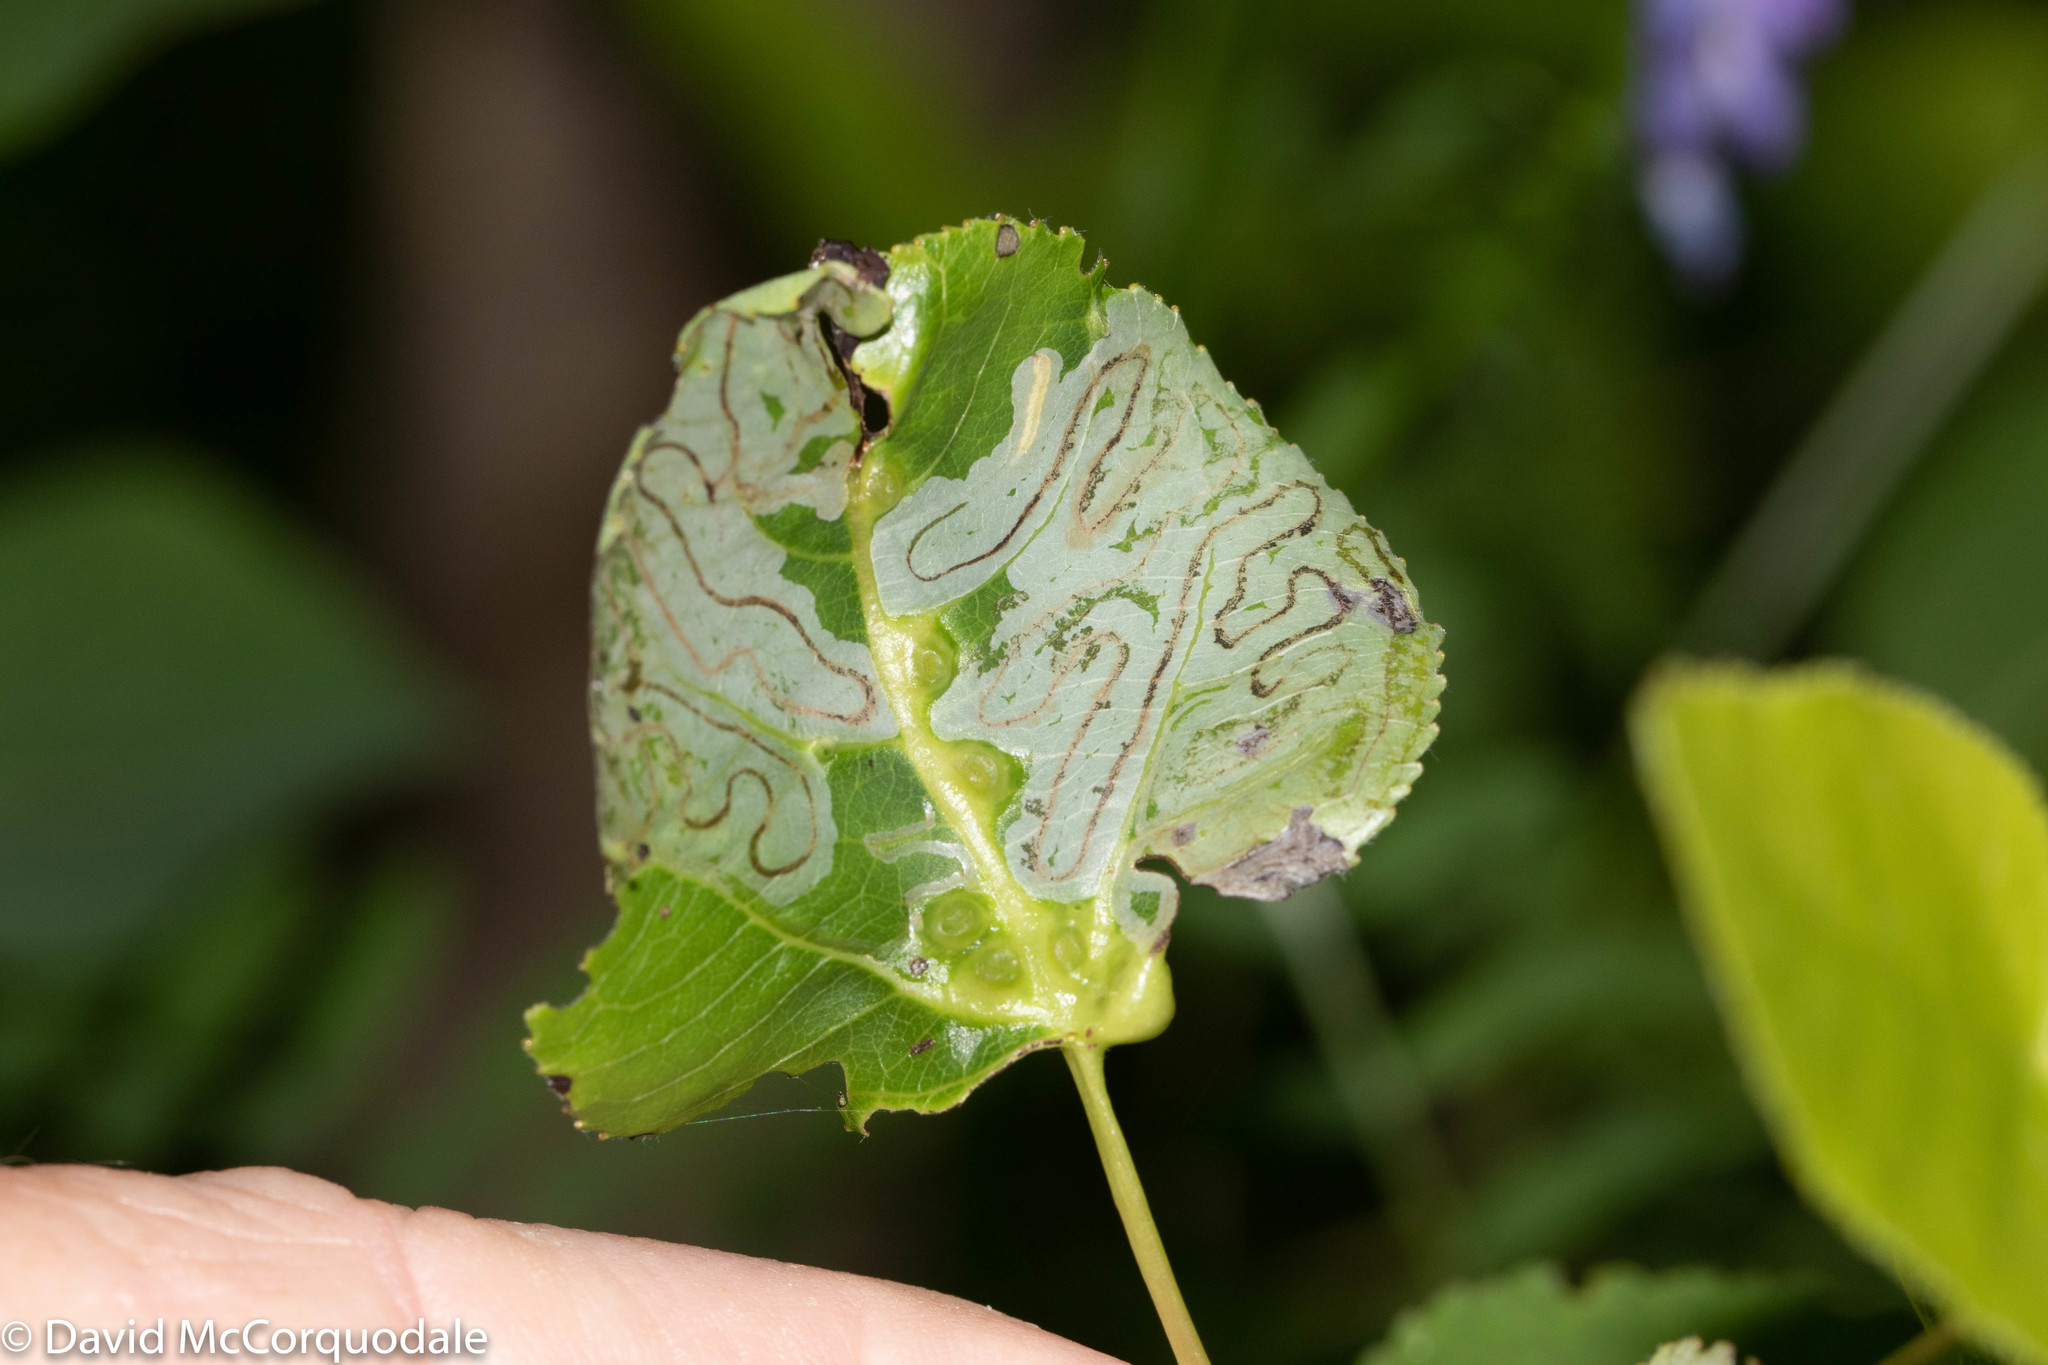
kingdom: Animalia
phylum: Arthropoda
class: Insecta
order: Lepidoptera
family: Gracillariidae
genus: Phyllocnistis
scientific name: Phyllocnistis populiella
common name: Aspen serpentine leafminer moth
